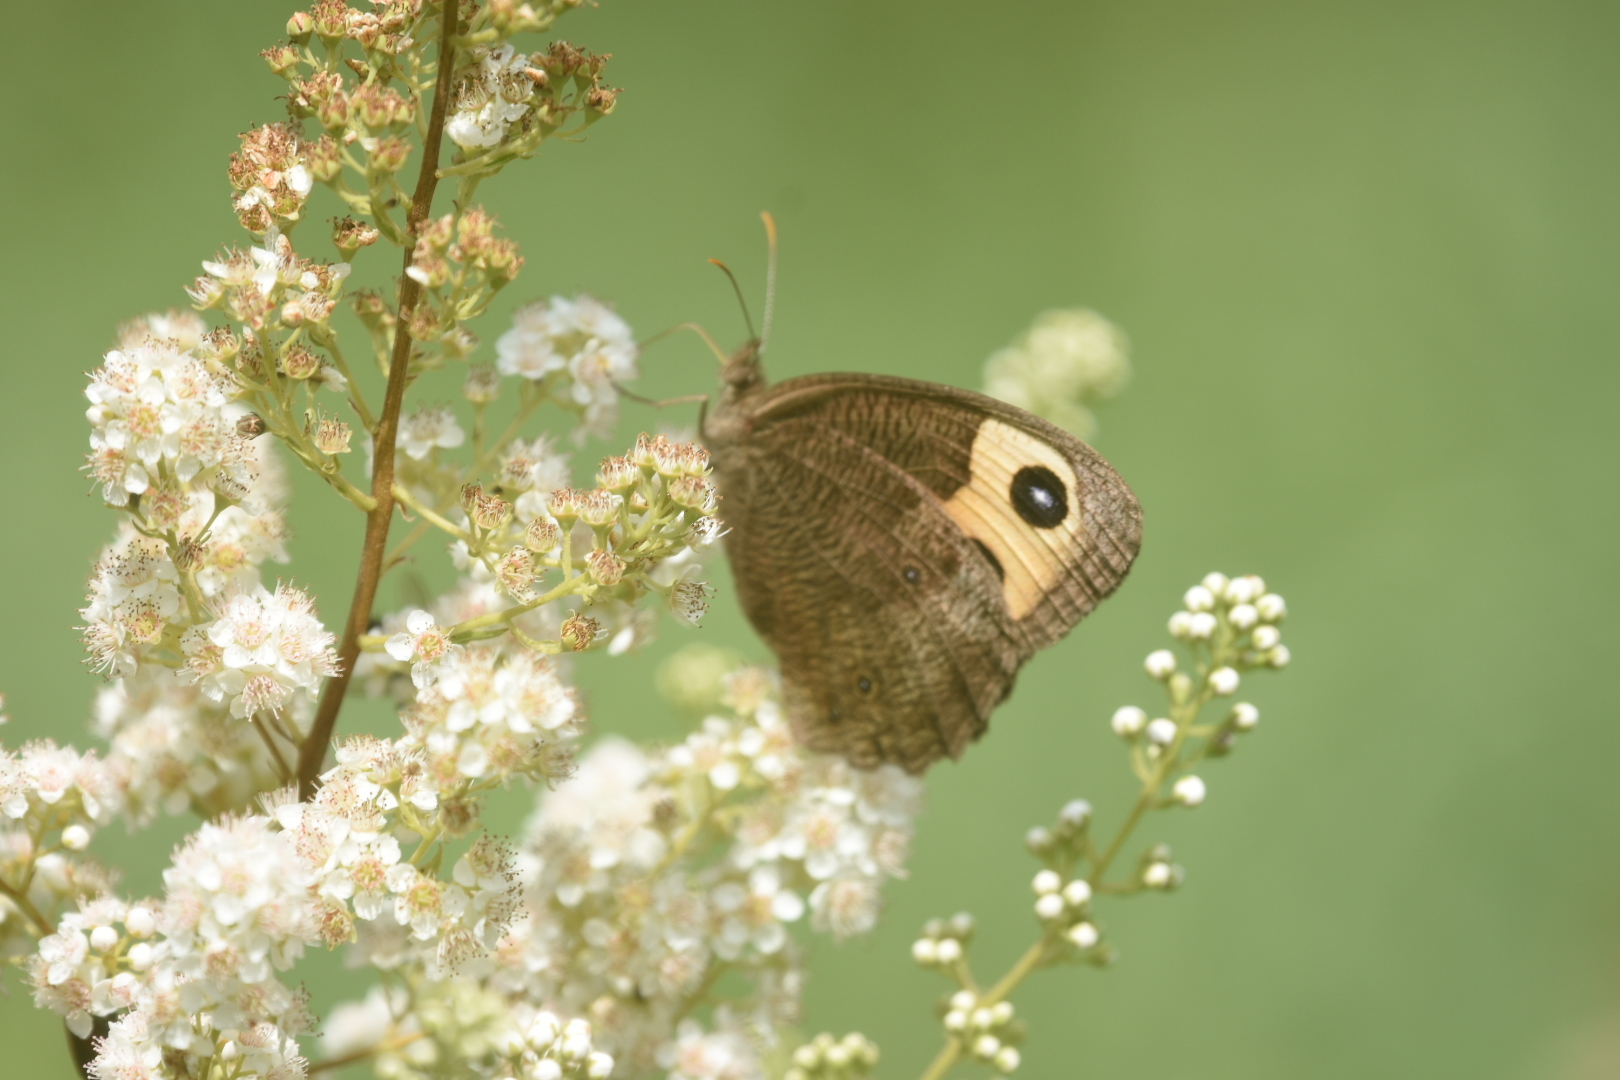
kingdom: Animalia
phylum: Arthropoda
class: Insecta
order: Lepidoptera
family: Nymphalidae
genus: Cercyonis
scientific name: Cercyonis pegala
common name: Common wood-nymph
